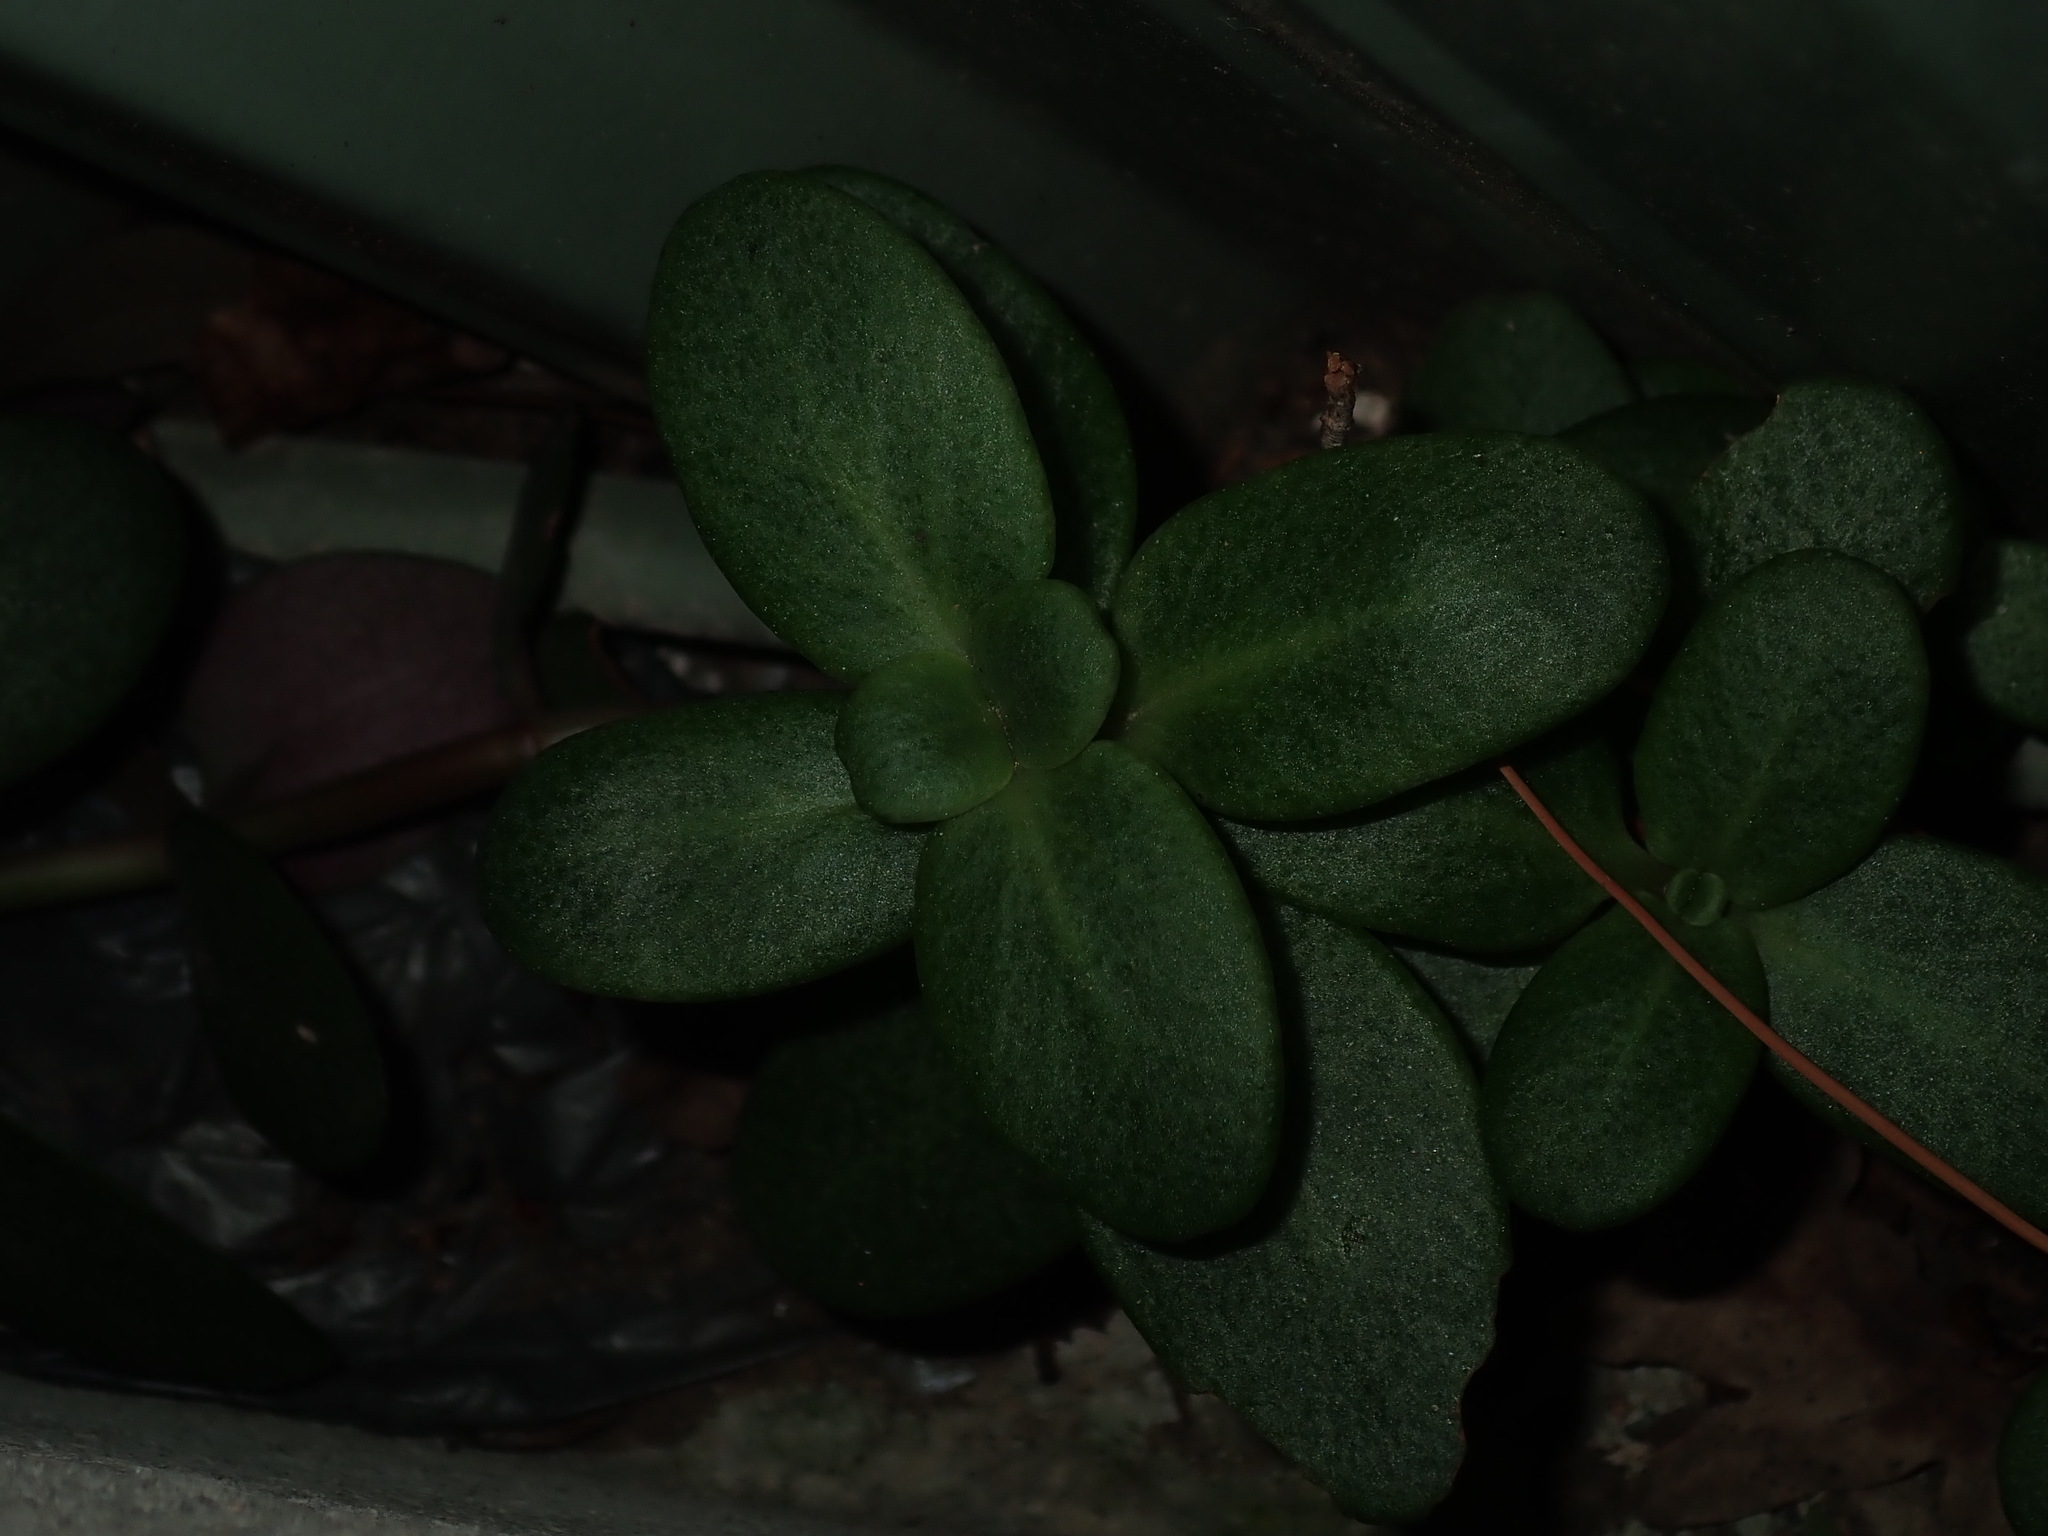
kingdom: Plantae
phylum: Tracheophyta
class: Magnoliopsida
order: Saxifragales
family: Crassulaceae
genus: Crassula
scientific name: Crassula multicava
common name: Cape province pygmyweed
